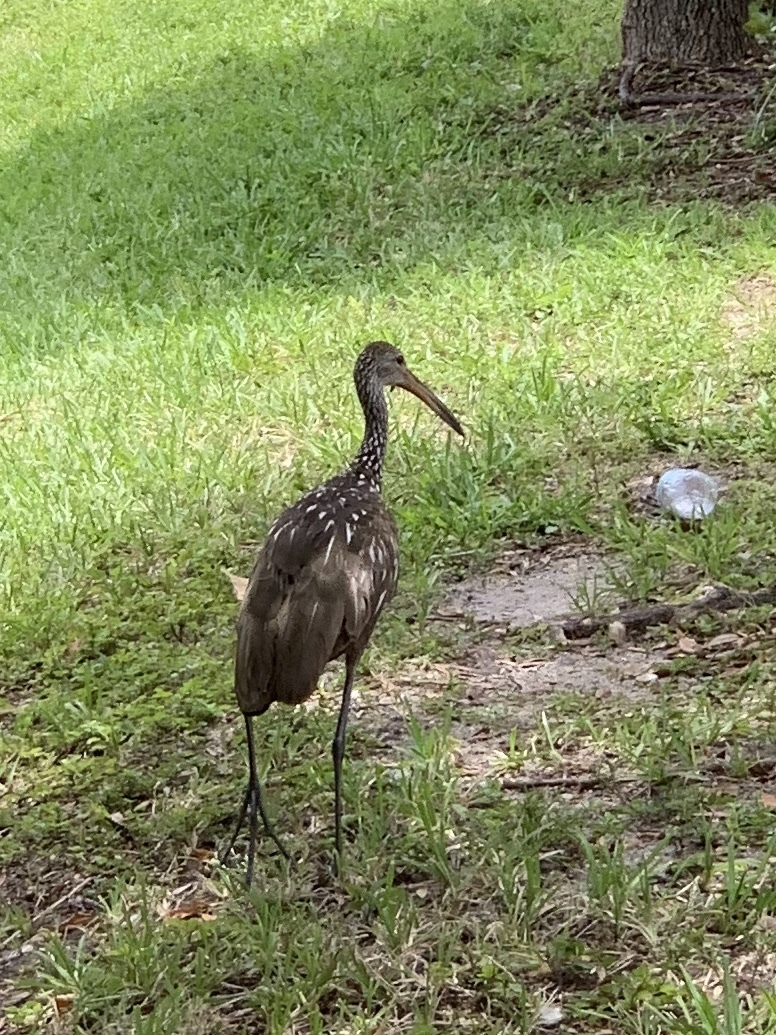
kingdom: Animalia
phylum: Chordata
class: Aves
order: Gruiformes
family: Aramidae
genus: Aramus
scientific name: Aramus guarauna
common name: Limpkin
